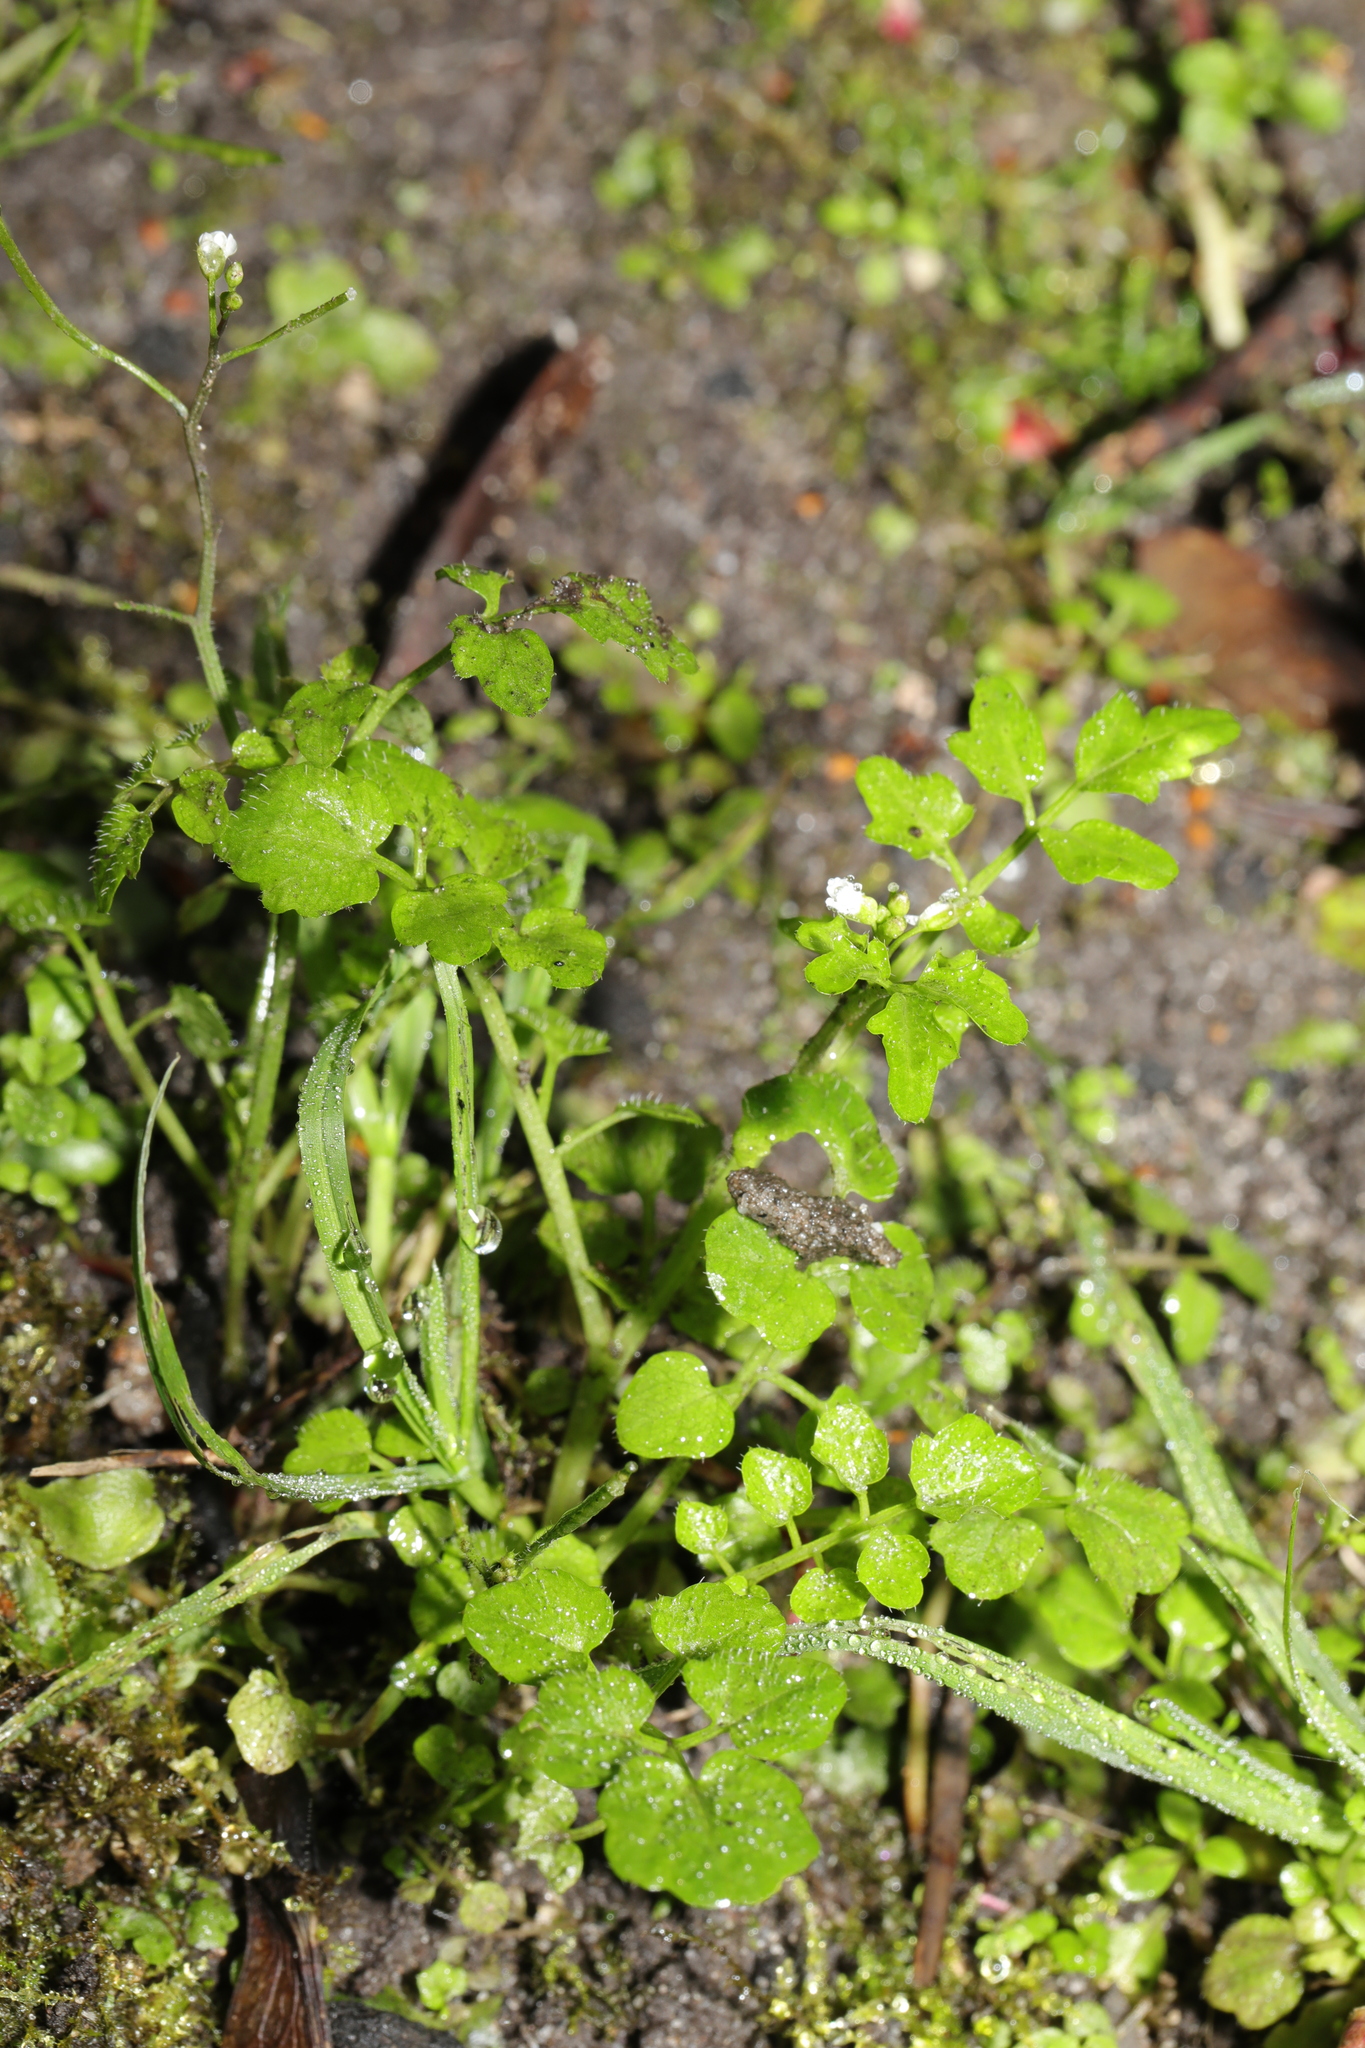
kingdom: Plantae
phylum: Tracheophyta
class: Magnoliopsida
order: Brassicales
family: Brassicaceae
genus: Cardamine
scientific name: Cardamine flexuosa
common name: Woodland bittercress
